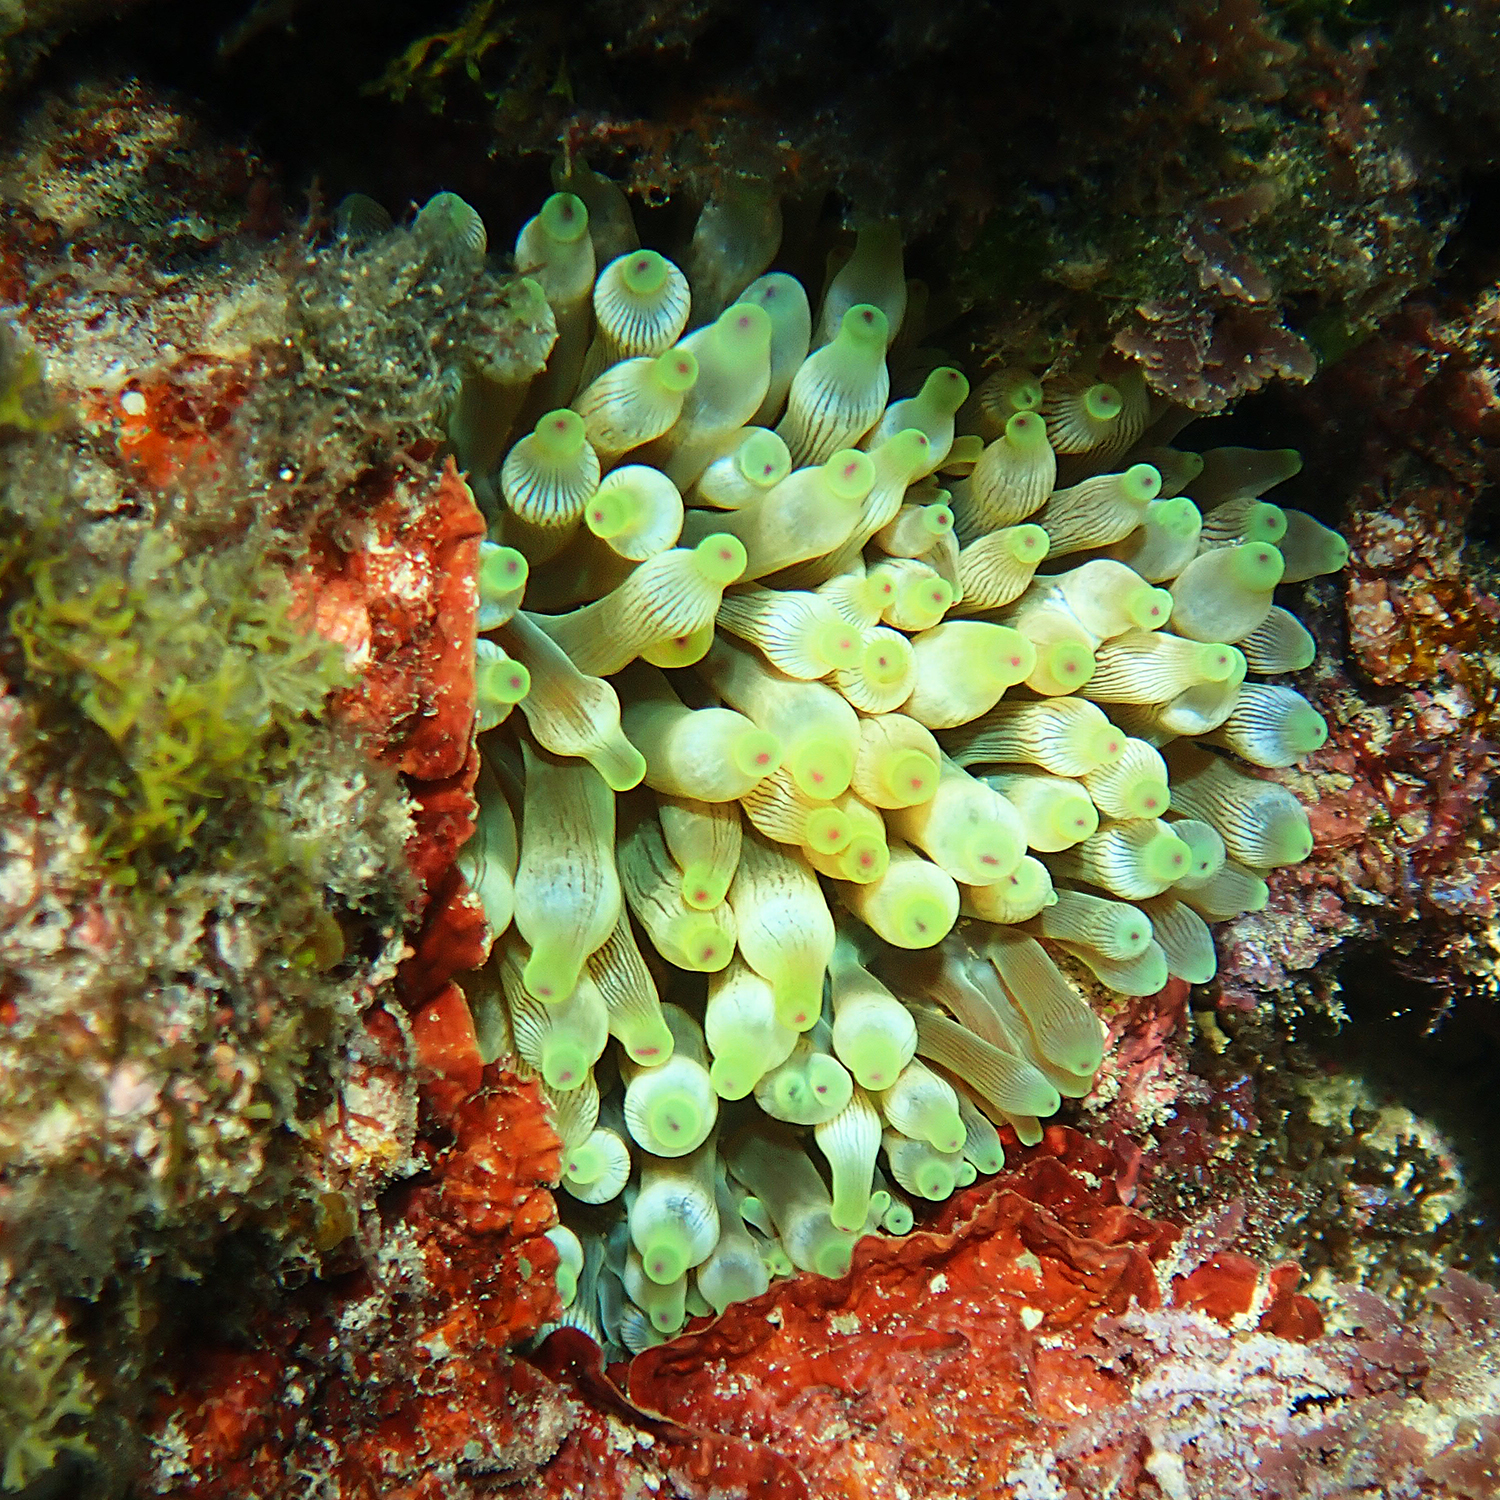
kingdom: Animalia
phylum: Cnidaria
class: Anthozoa
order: Actiniaria
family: Actiniidae
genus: Entacmaea
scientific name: Entacmaea quadricolor
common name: Bulb tentacle sea anemone
